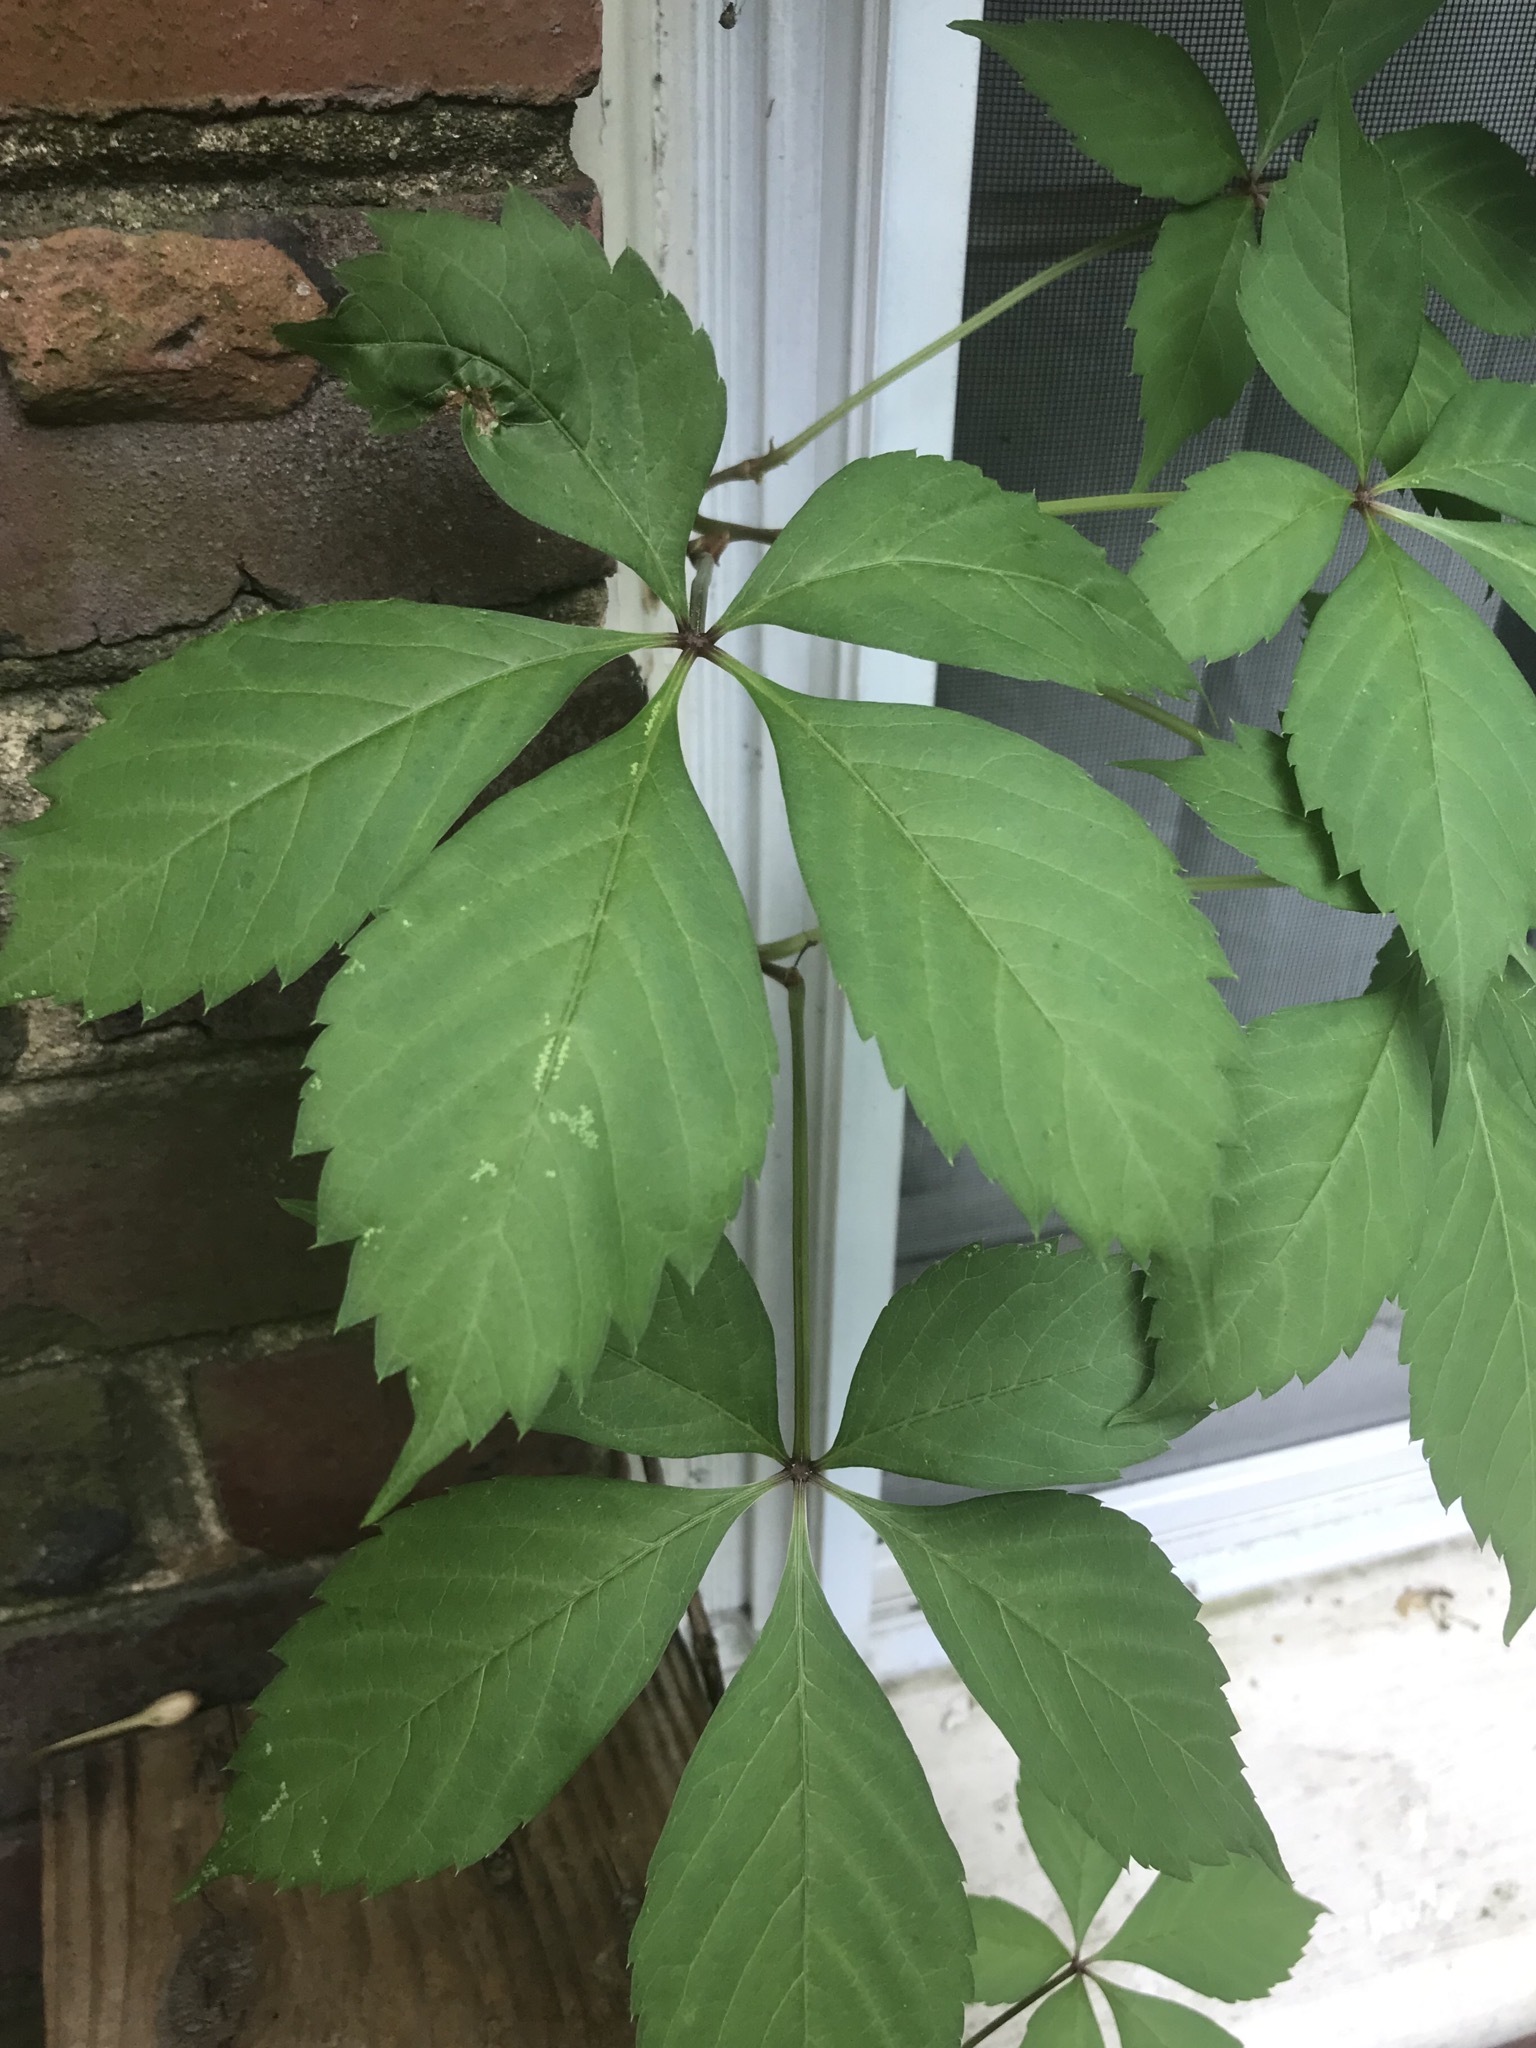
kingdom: Plantae
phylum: Tracheophyta
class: Magnoliopsida
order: Vitales
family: Vitaceae
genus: Parthenocissus
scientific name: Parthenocissus quinquefolia
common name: Virginia-creeper
